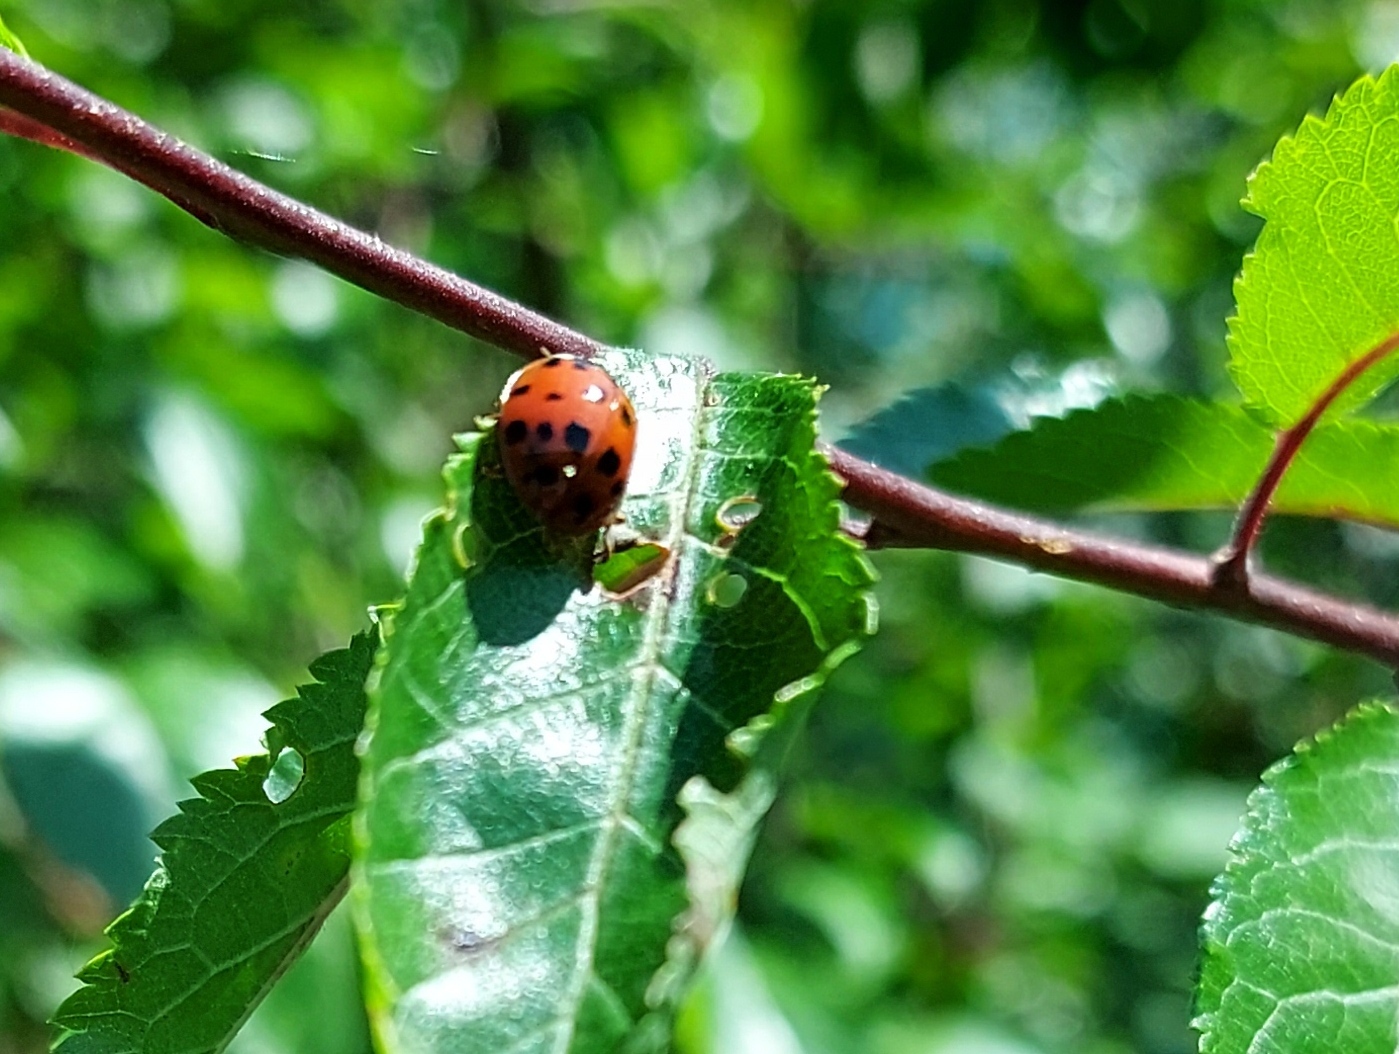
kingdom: Animalia
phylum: Arthropoda
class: Insecta
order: Coleoptera
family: Coccinellidae
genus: Harmonia
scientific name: Harmonia axyridis
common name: Harlequin ladybird
